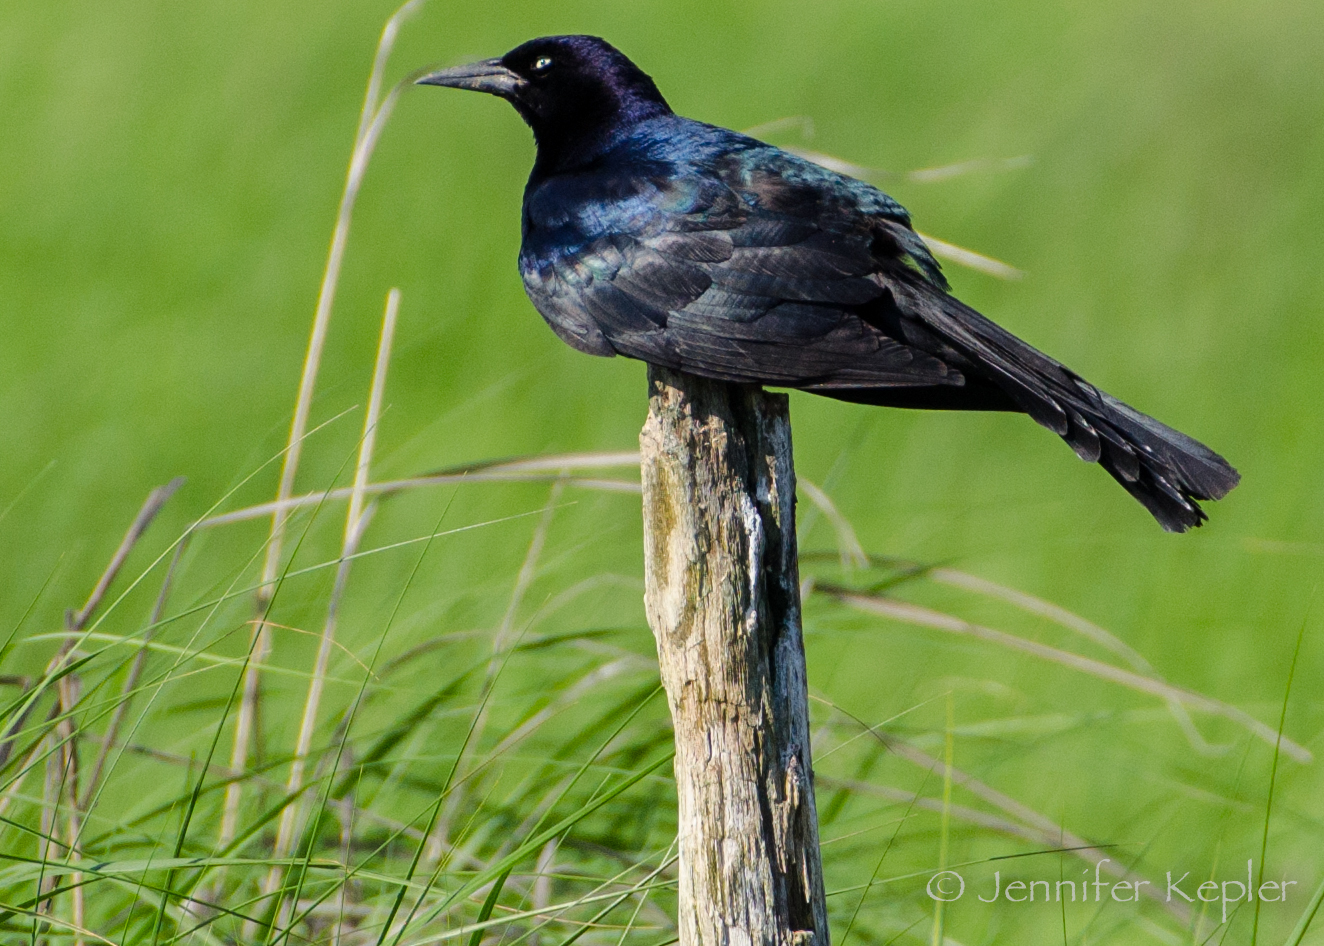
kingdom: Animalia
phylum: Chordata
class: Aves
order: Passeriformes
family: Icteridae
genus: Quiscalus
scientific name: Quiscalus major
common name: Boat-tailed grackle
